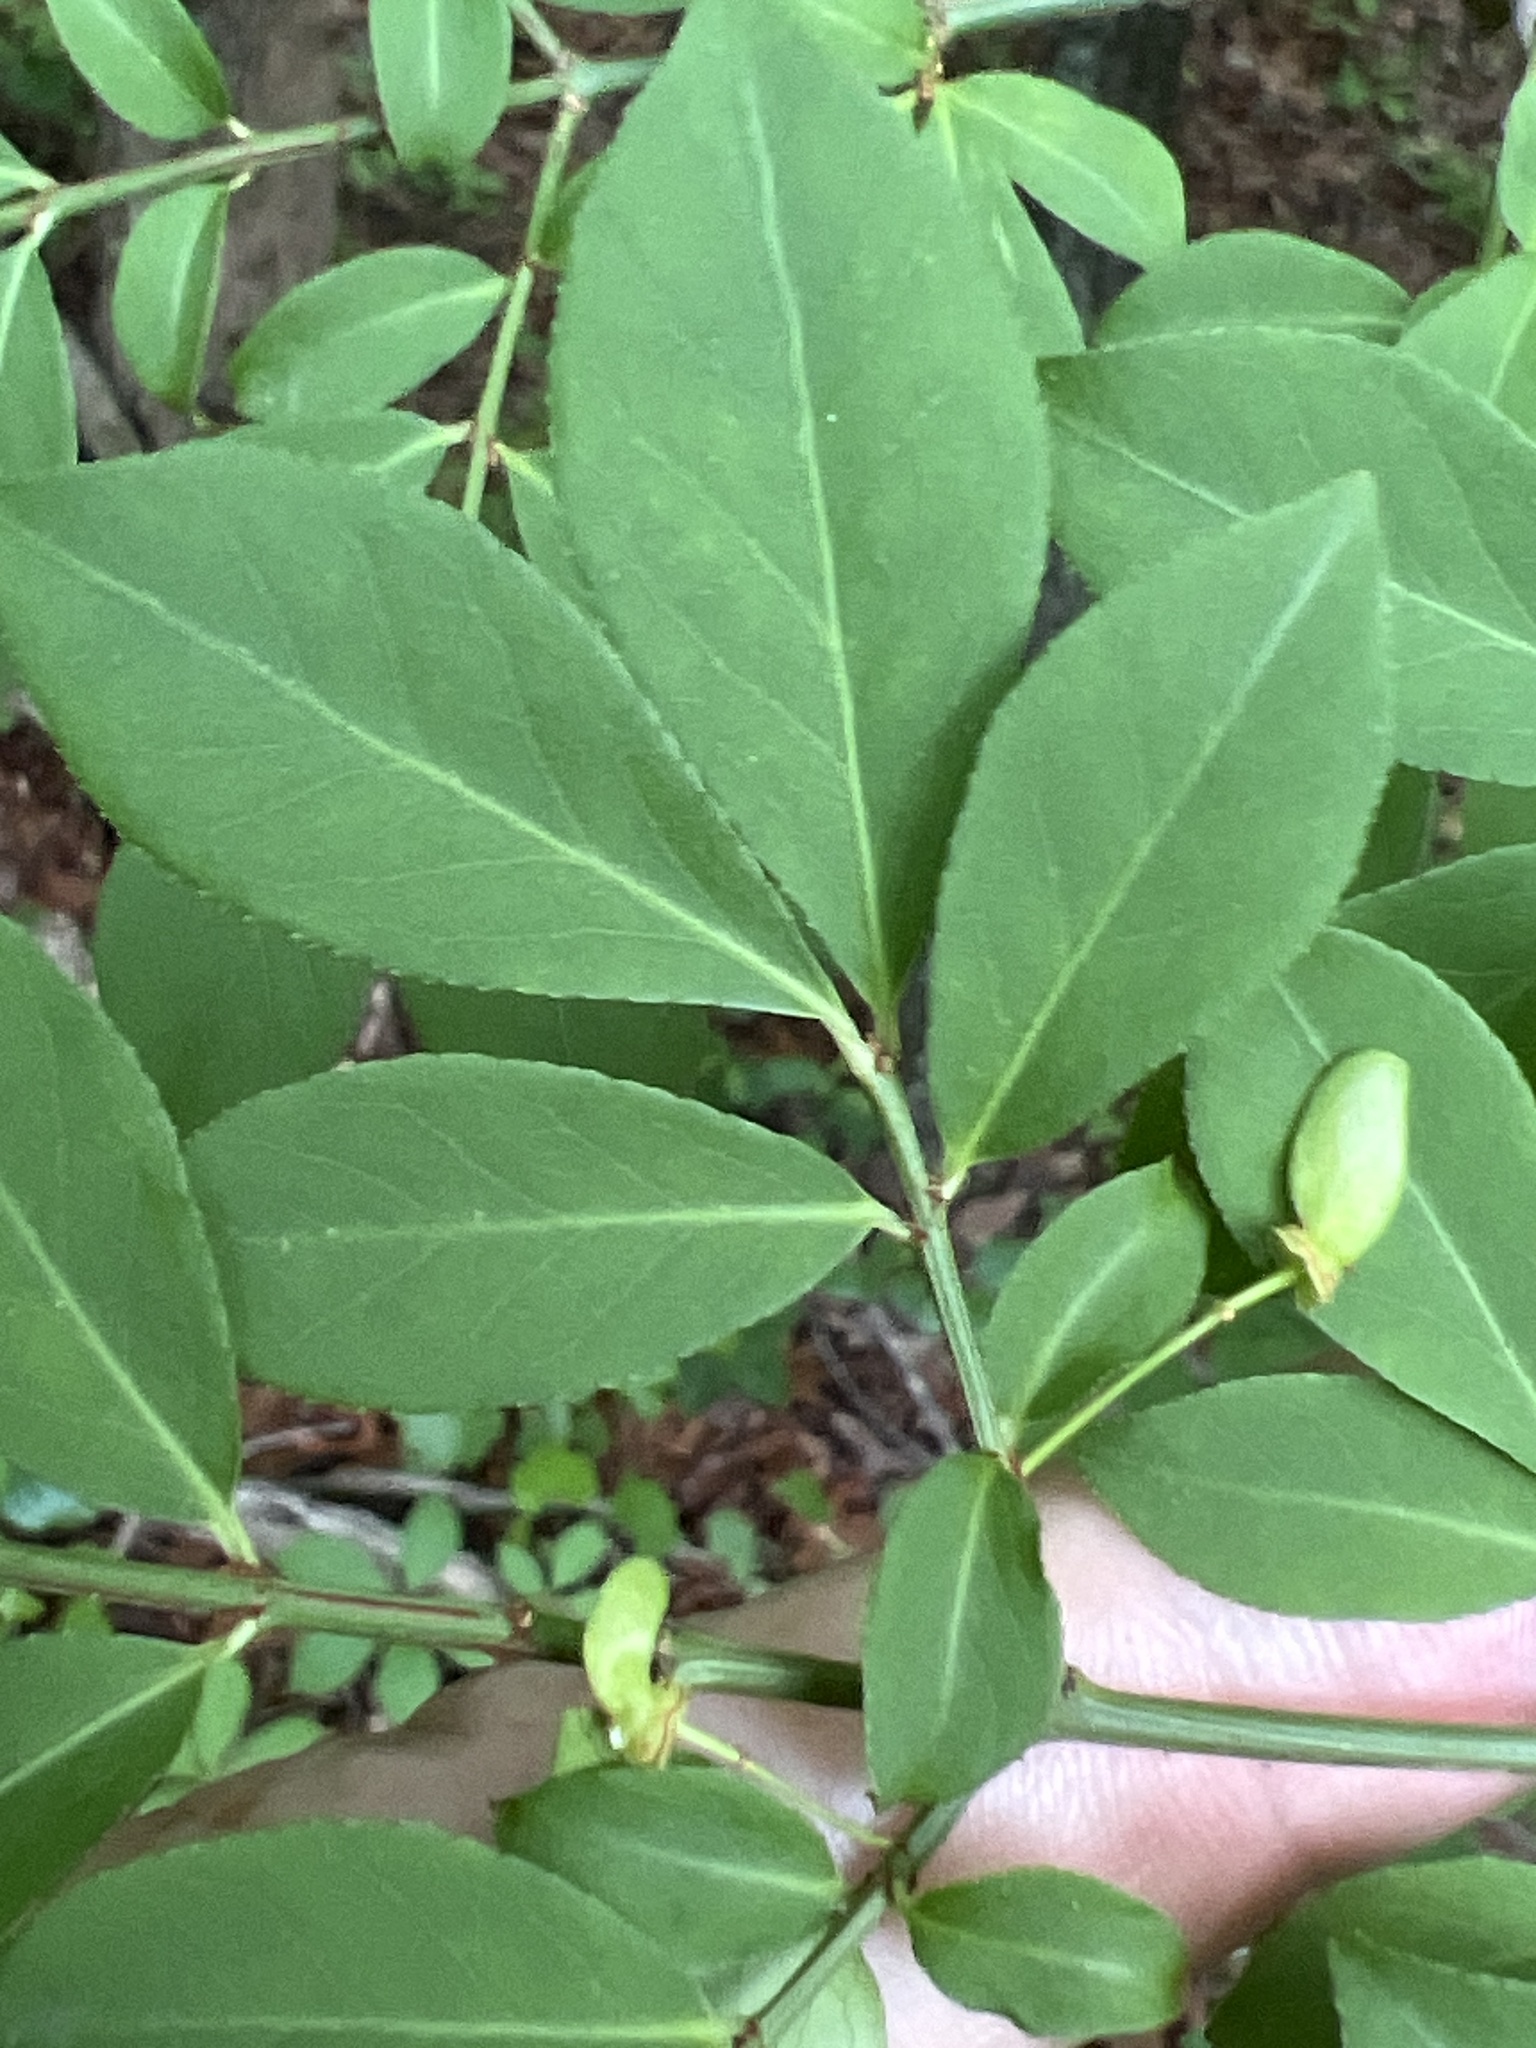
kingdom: Plantae
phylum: Tracheophyta
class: Magnoliopsida
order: Celastrales
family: Celastraceae
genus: Euonymus
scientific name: Euonymus alatus
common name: Winged euonymus
